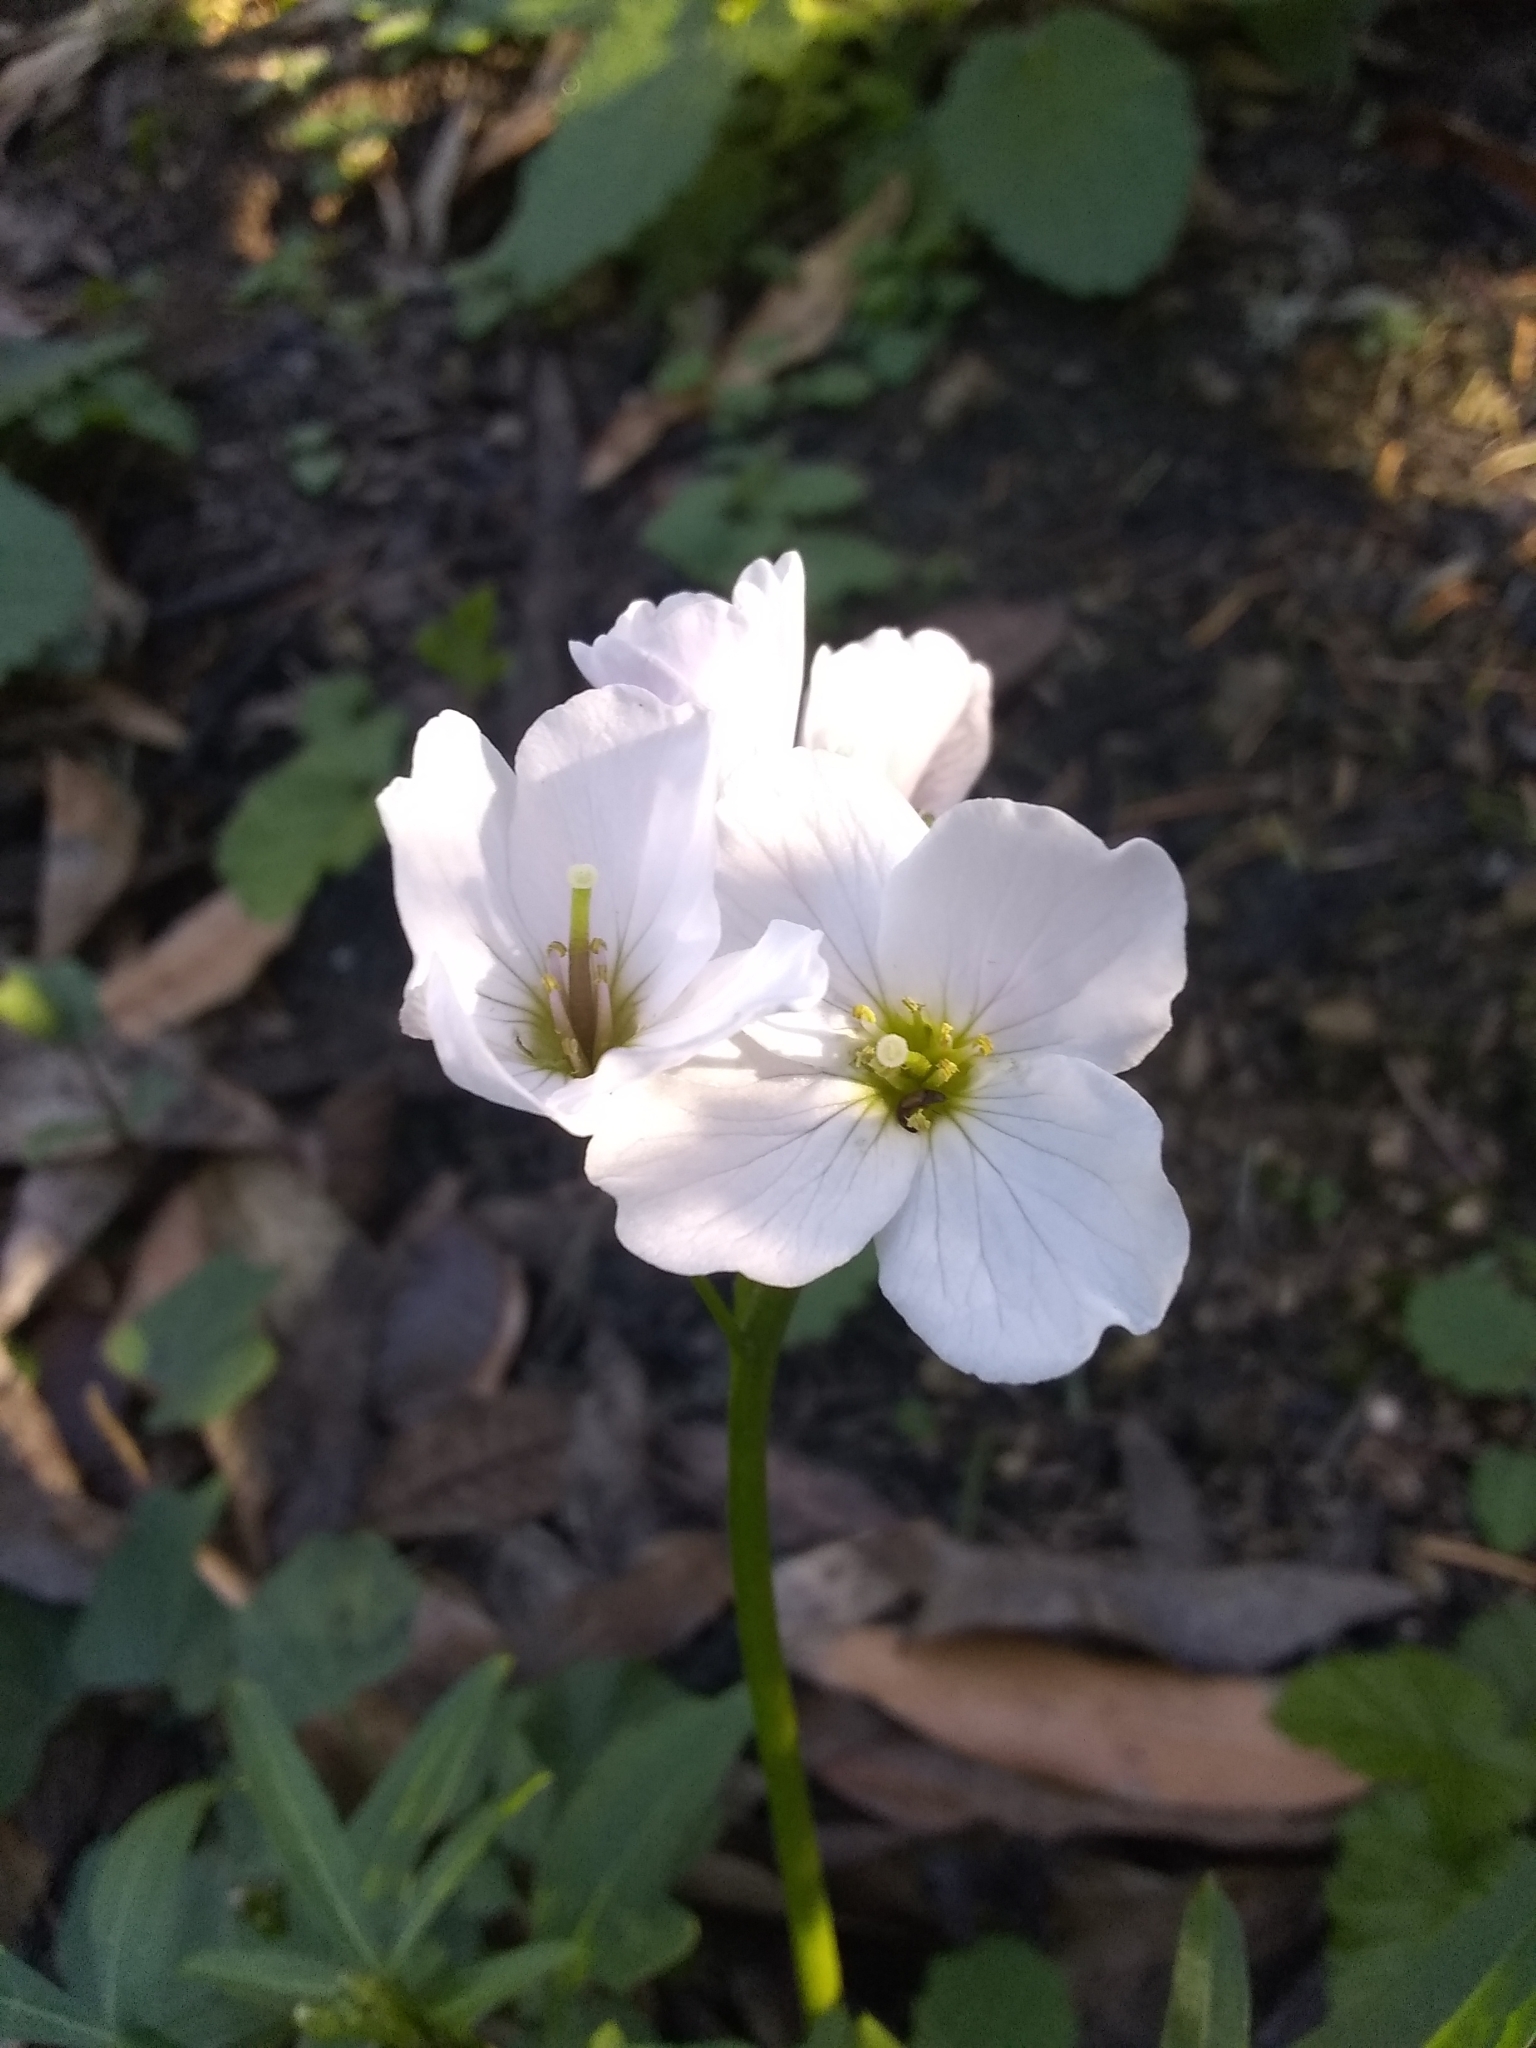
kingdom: Plantae
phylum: Tracheophyta
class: Magnoliopsida
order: Brassicales
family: Brassicaceae
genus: Cardamine
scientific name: Cardamine californica
